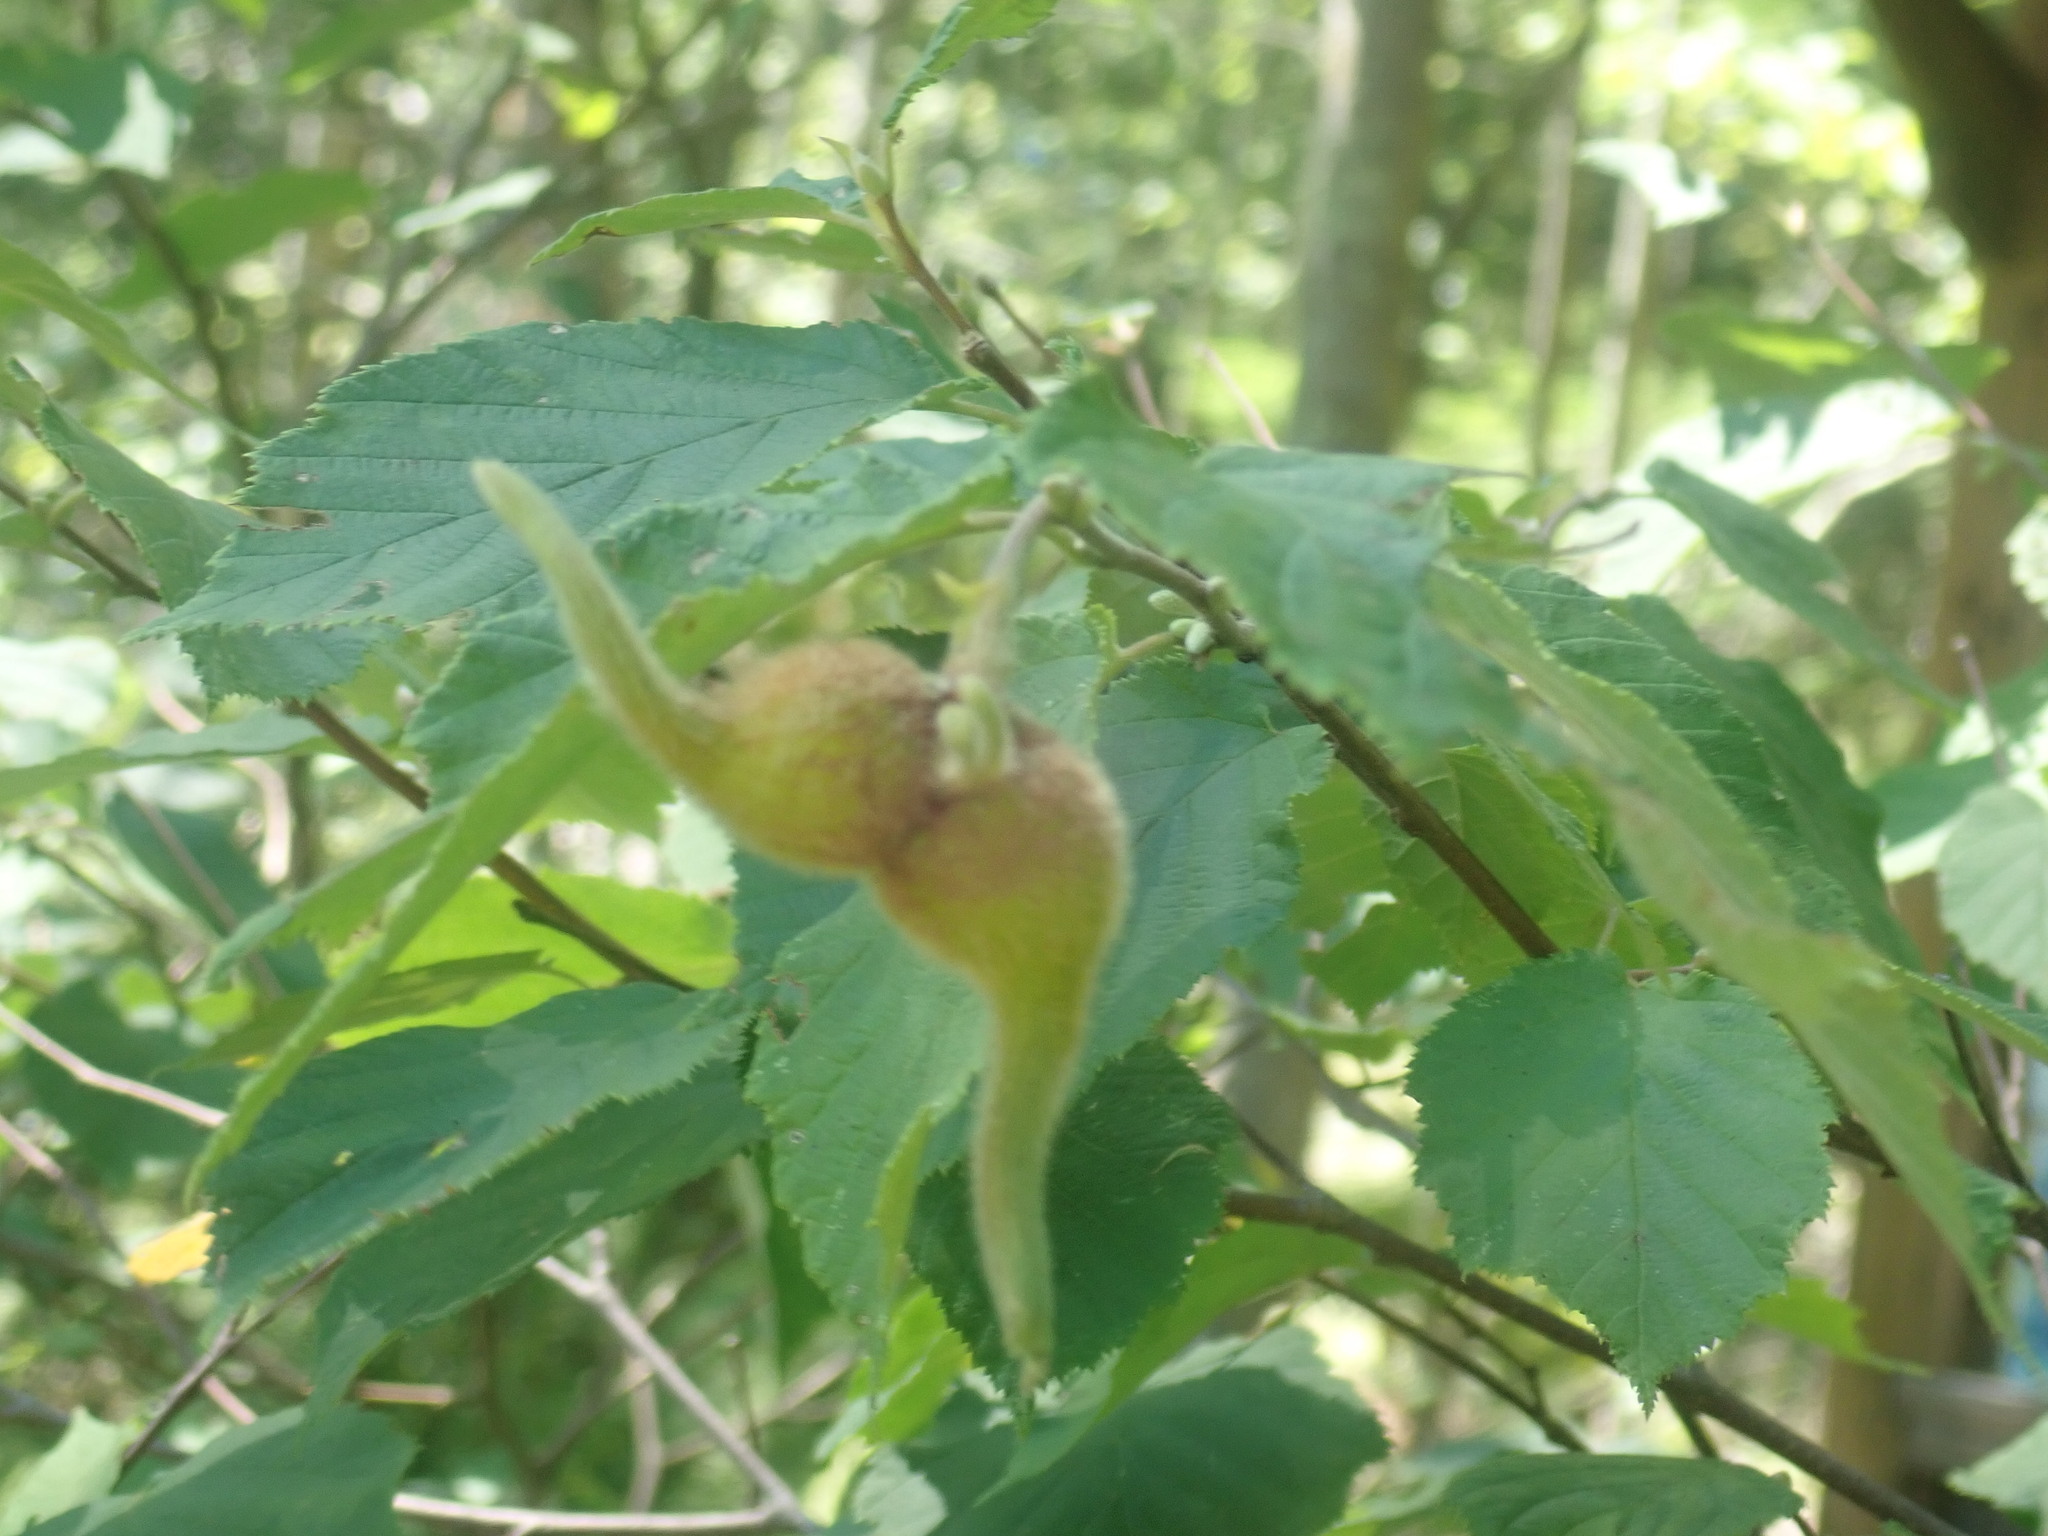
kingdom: Plantae
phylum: Tracheophyta
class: Magnoliopsida
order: Fagales
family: Betulaceae
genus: Corylus
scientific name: Corylus cornuta
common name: Beaked hazel
